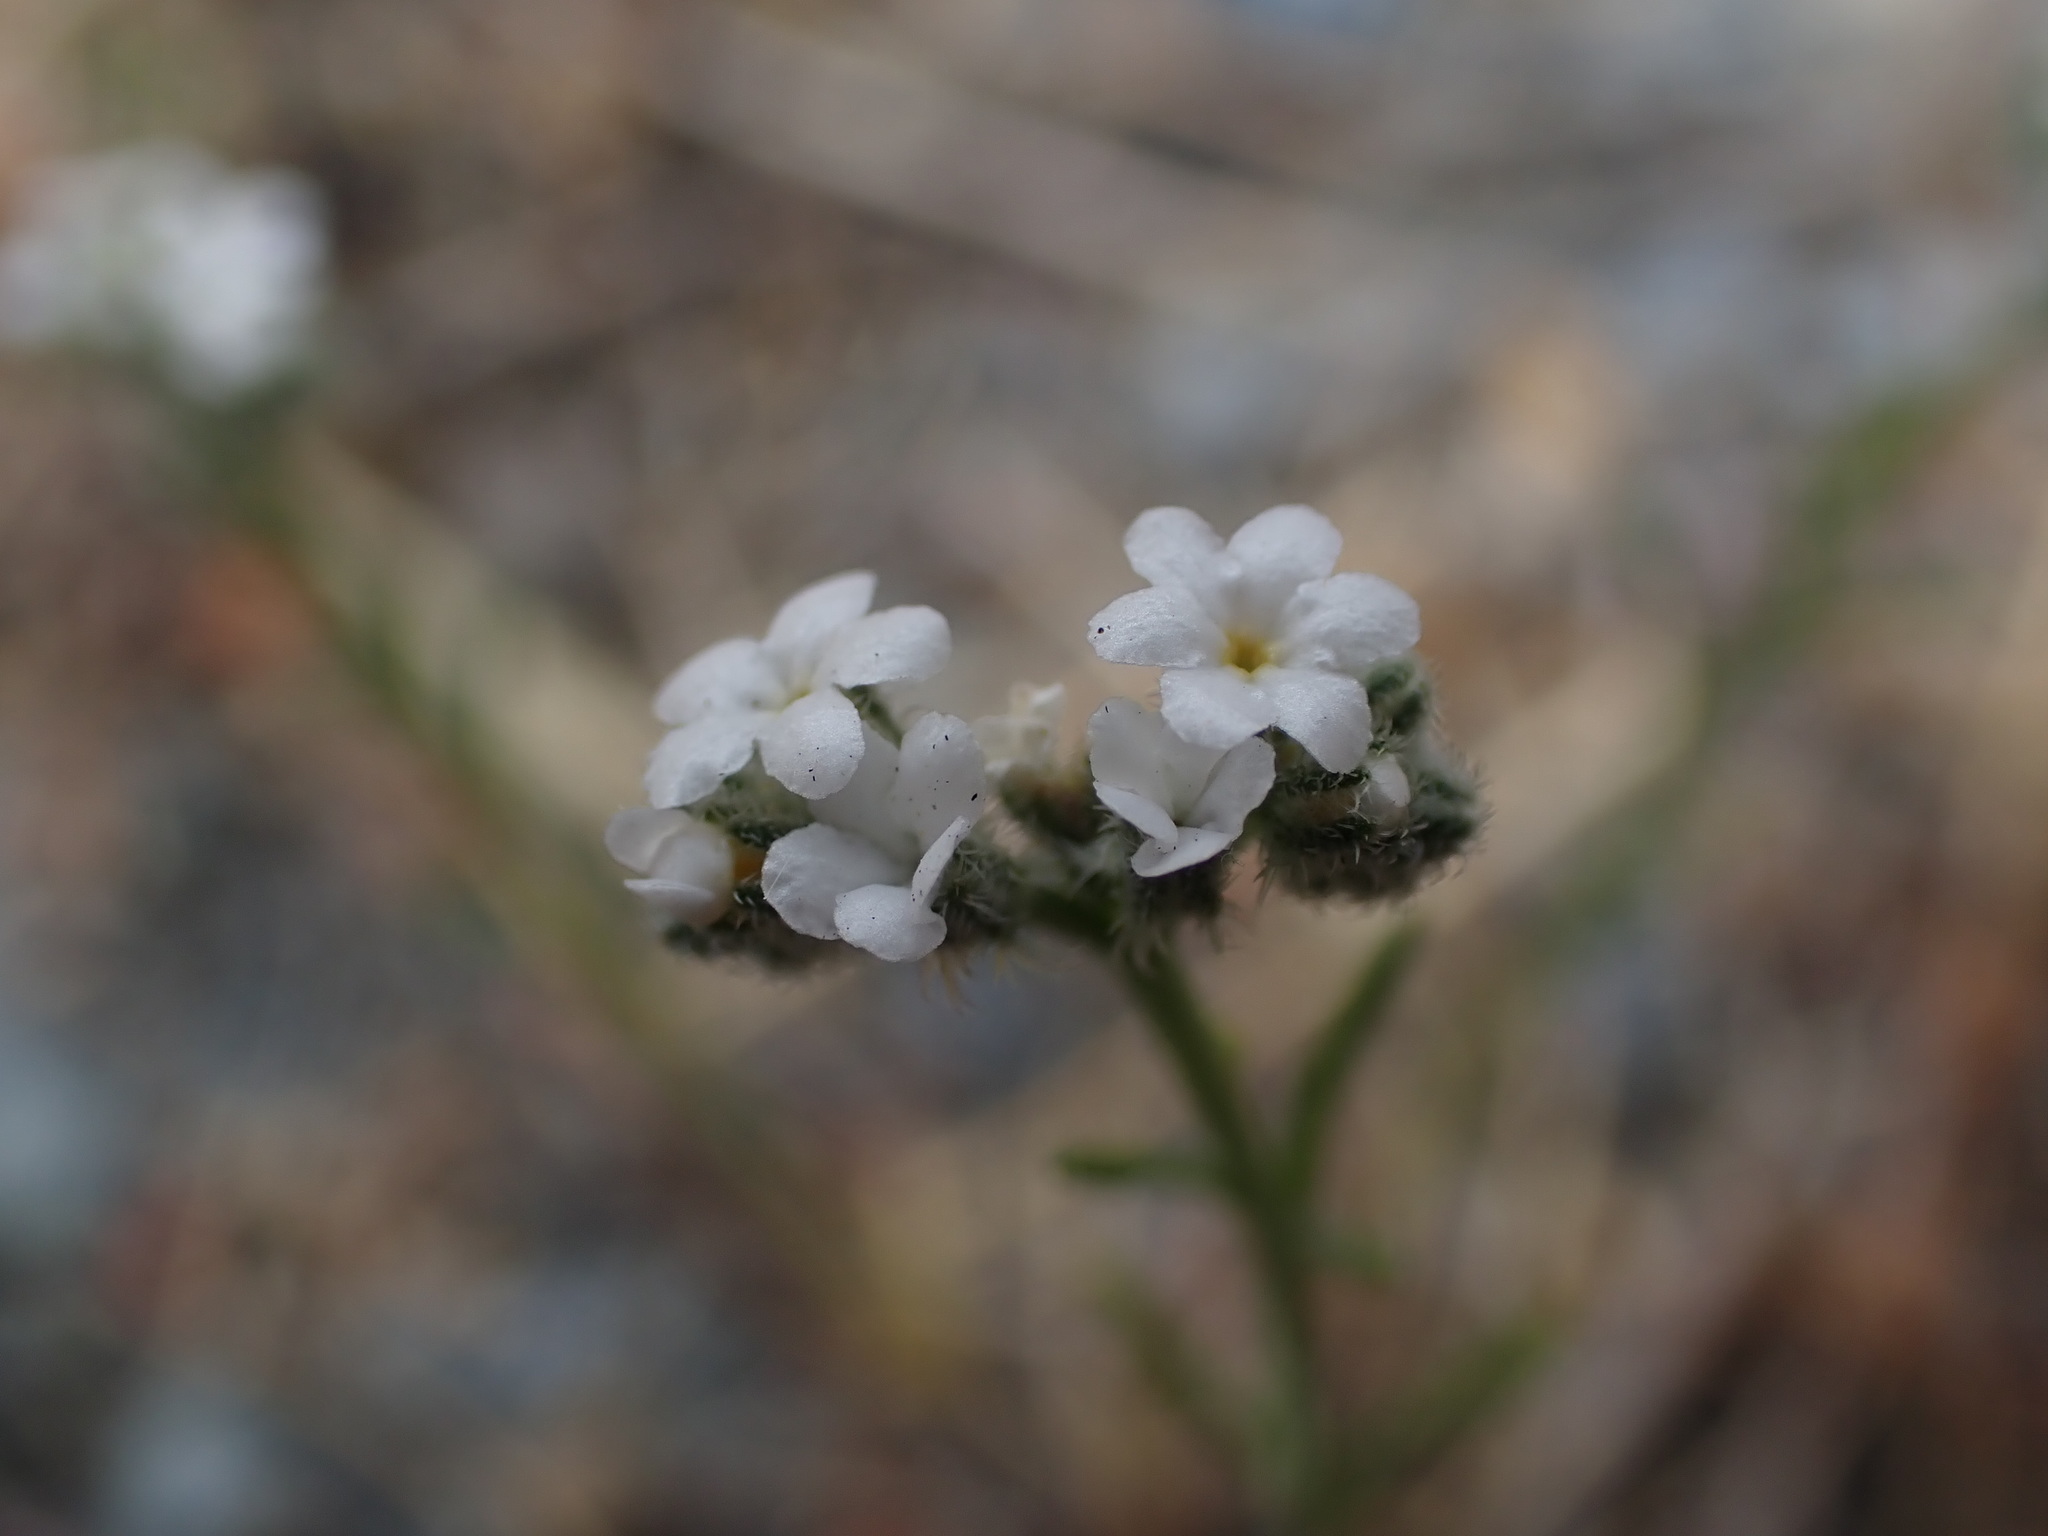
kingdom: Plantae
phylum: Tracheophyta
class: Magnoliopsida
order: Boraginales
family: Boraginaceae
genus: Cryptantha
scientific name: Cryptantha flaccida
